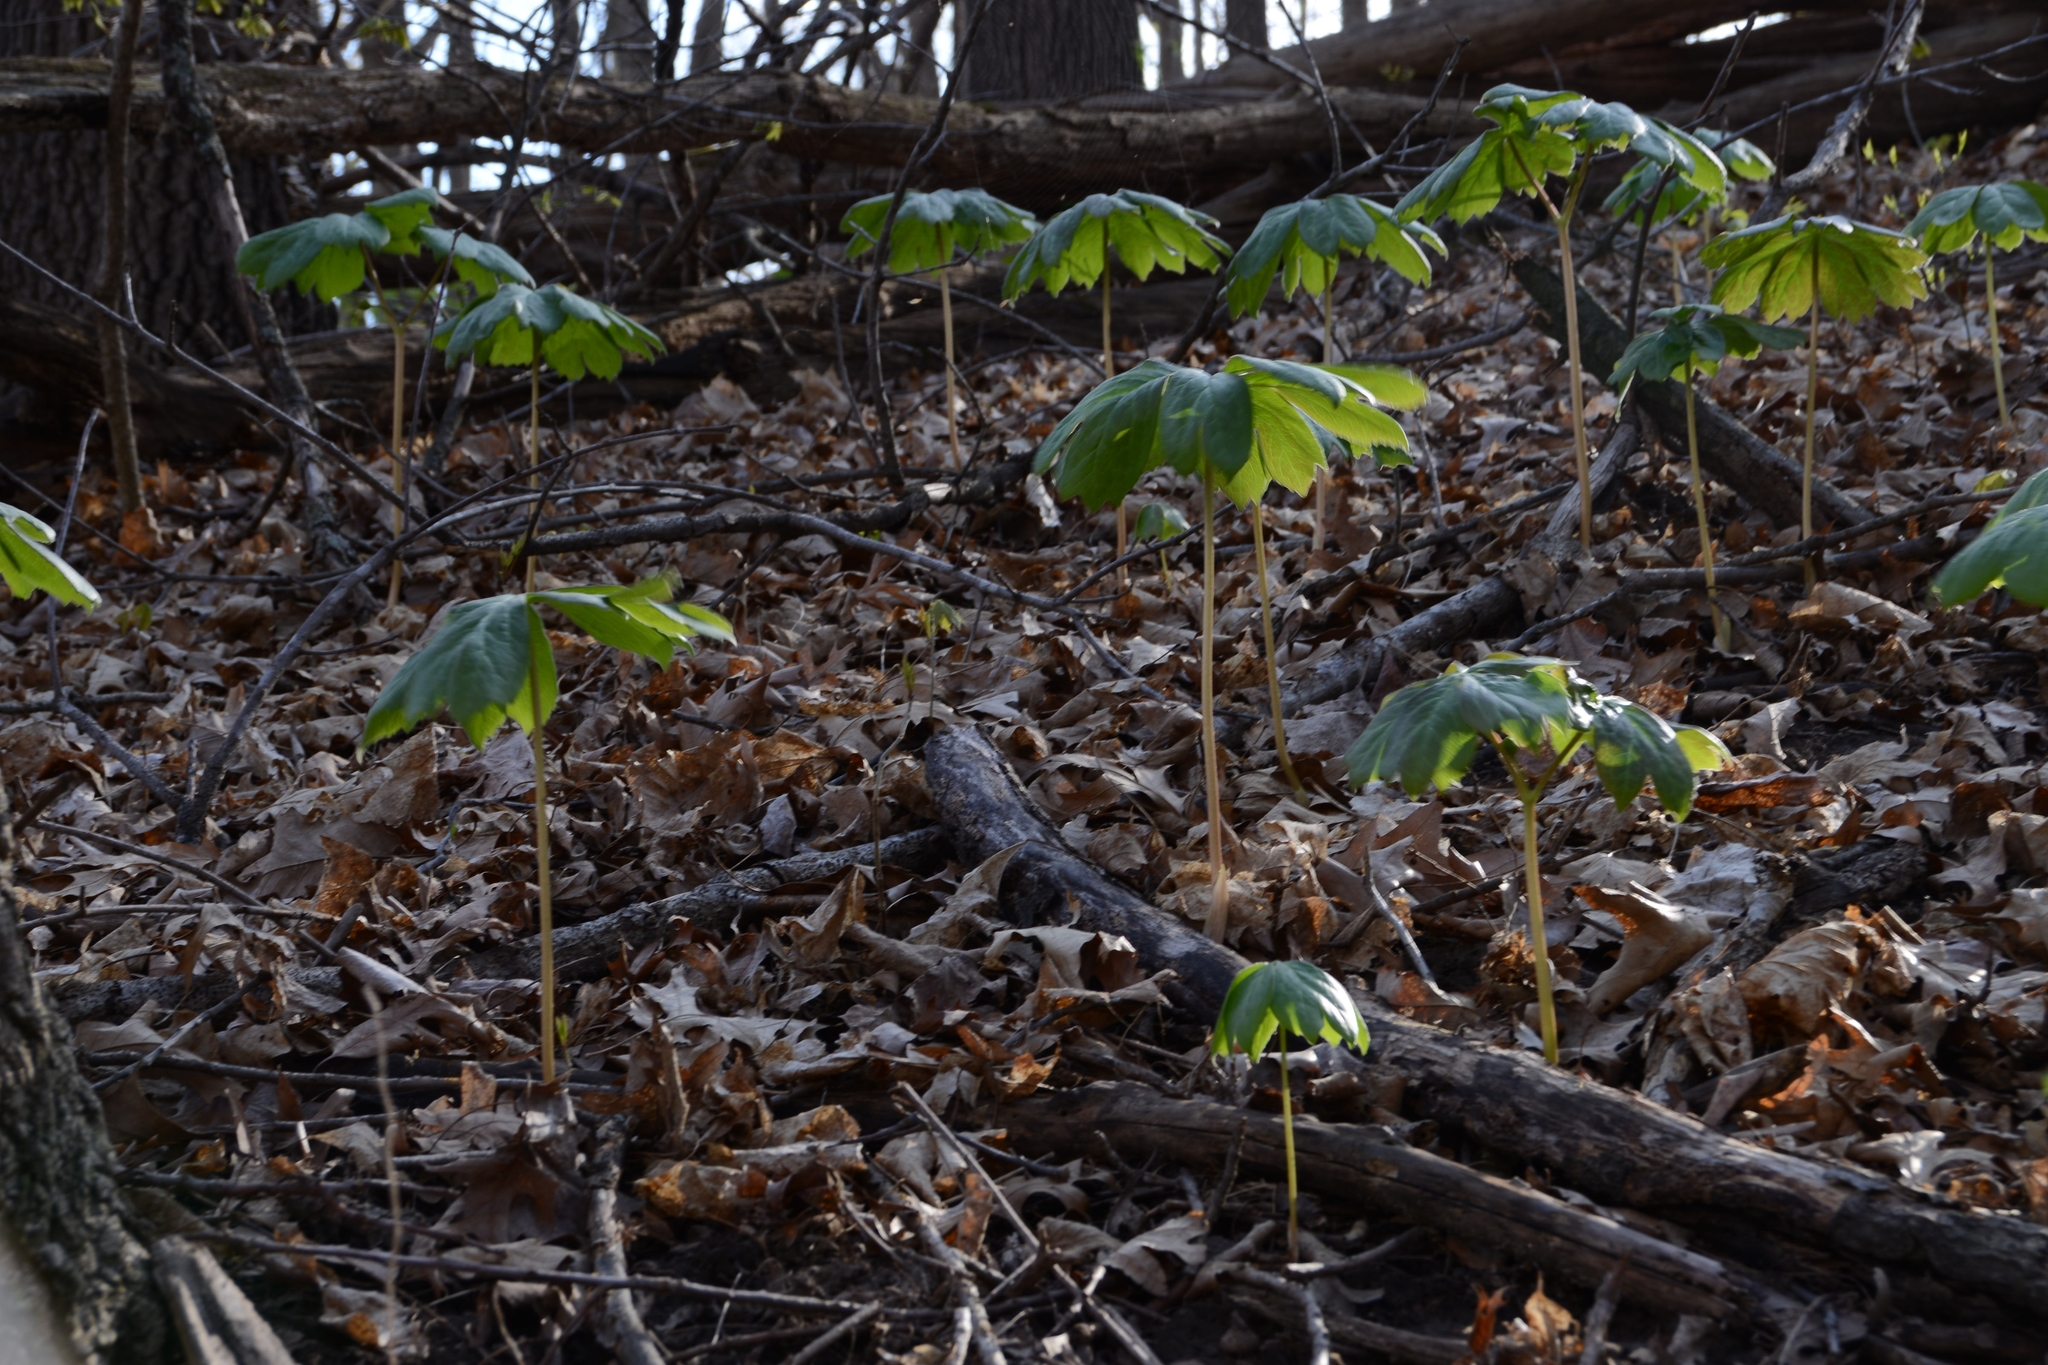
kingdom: Plantae
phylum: Tracheophyta
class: Magnoliopsida
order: Ranunculales
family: Berberidaceae
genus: Podophyllum
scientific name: Podophyllum peltatum
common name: Wild mandrake
